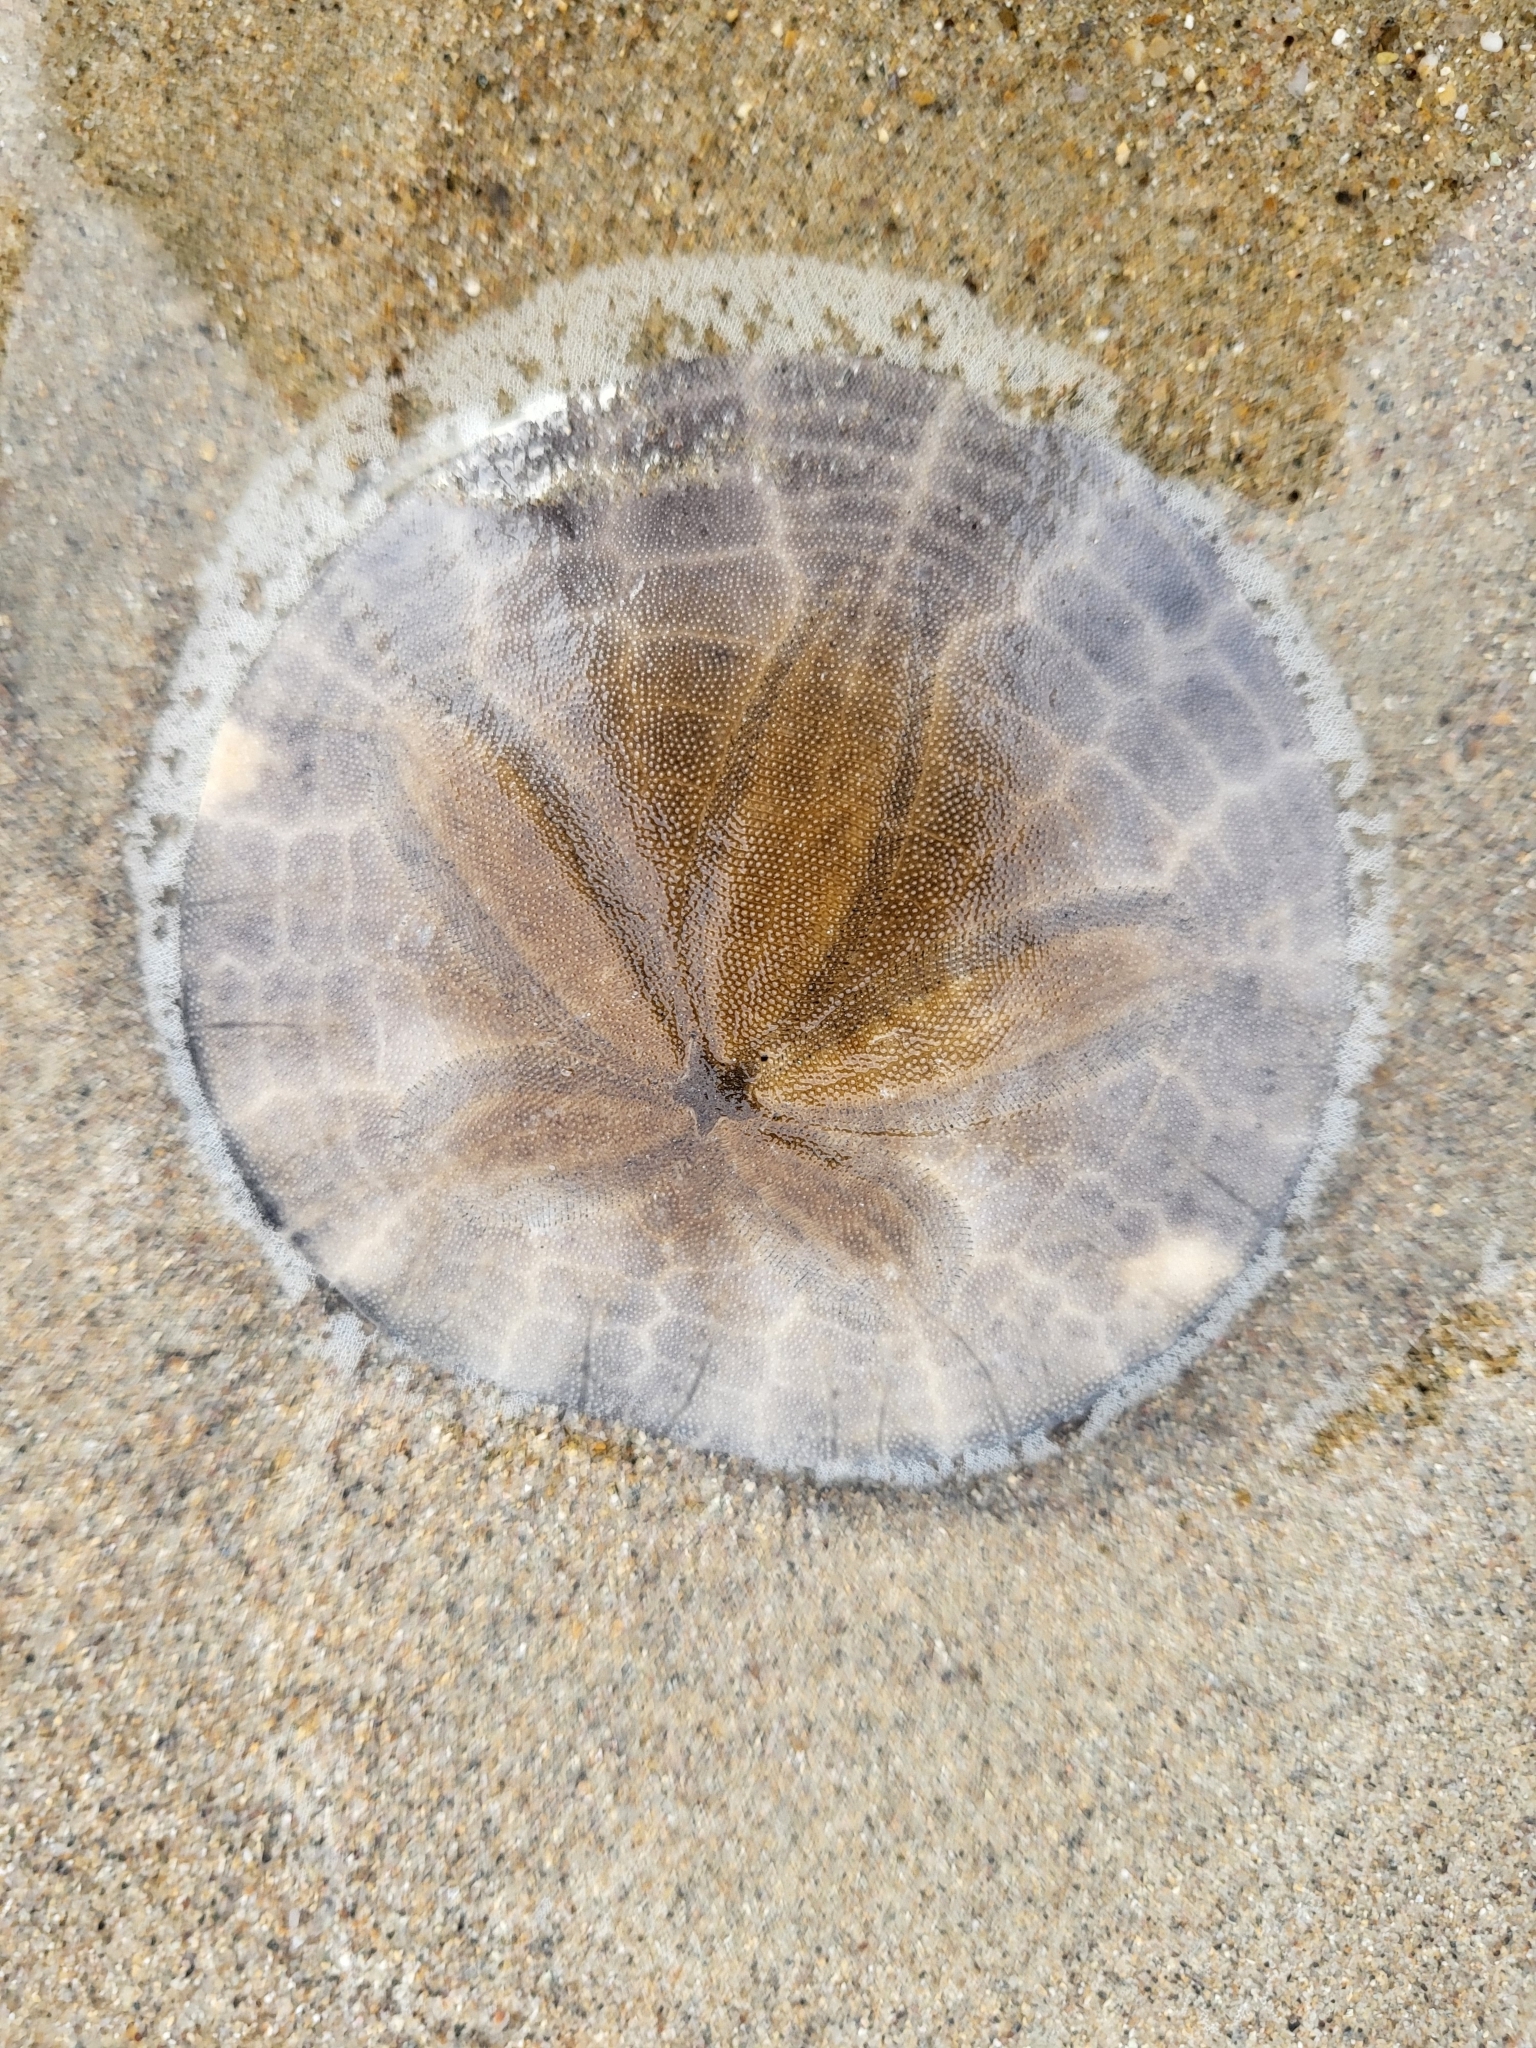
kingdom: Animalia
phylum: Echinodermata
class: Echinoidea
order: Echinolampadacea
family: Dendrasteridae
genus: Dendraster
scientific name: Dendraster excentricus
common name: Eccentric sand dollar sea urchin
